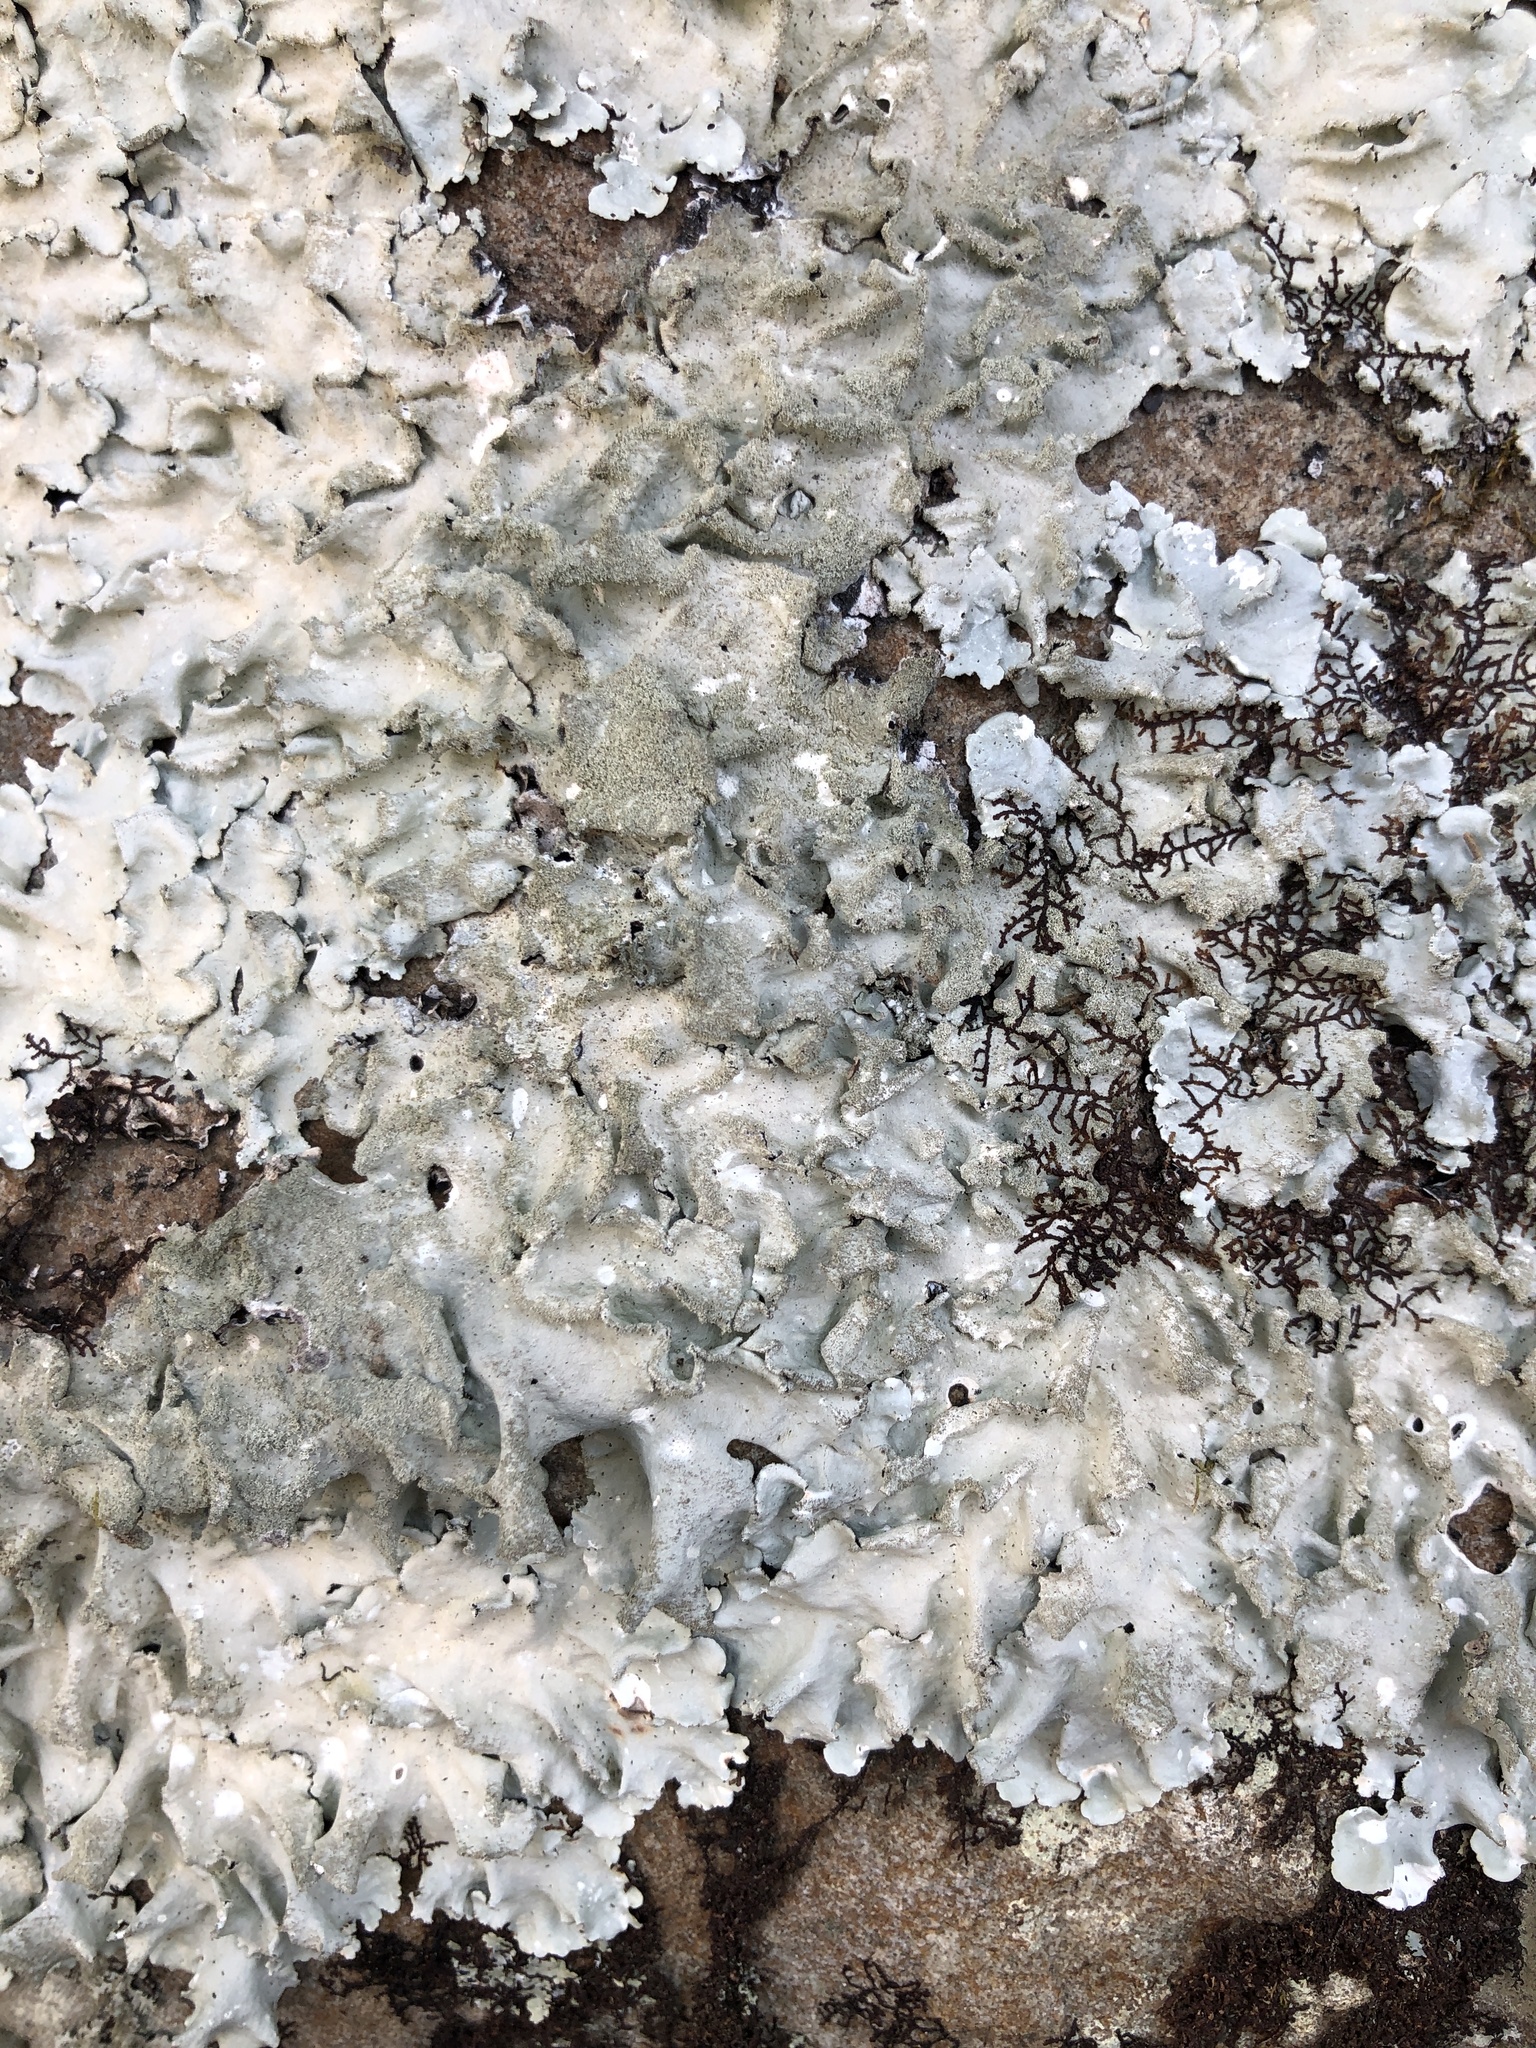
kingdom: Fungi
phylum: Ascomycota
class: Lecanoromycetes
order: Lecanorales
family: Parmeliaceae
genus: Parmotrema
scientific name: Parmotrema tinctorum
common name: Old gray ruffles
